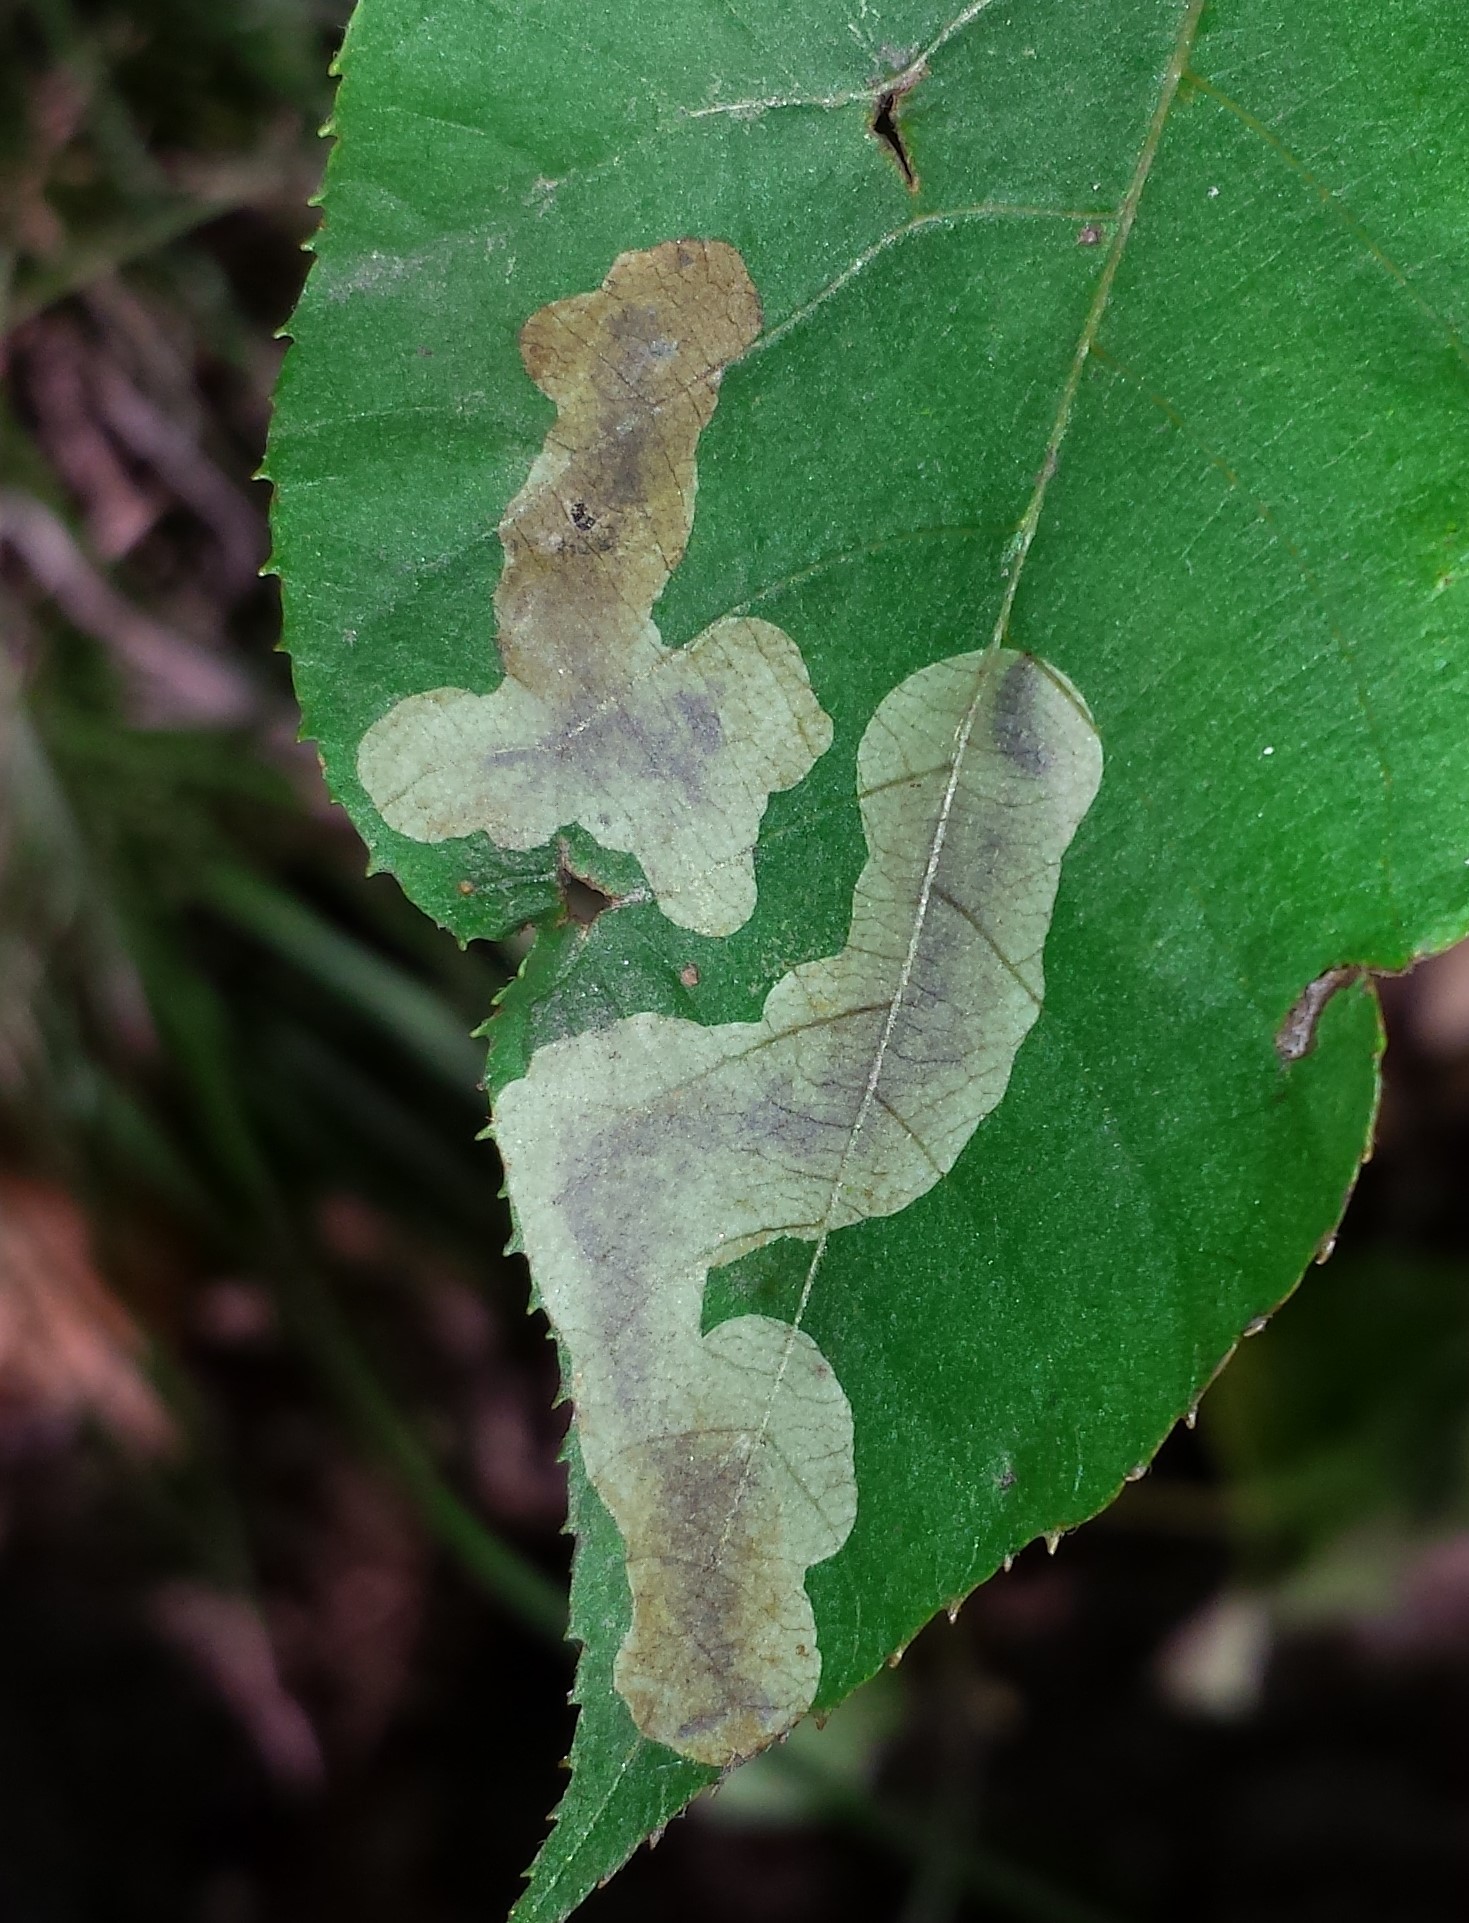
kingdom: Animalia
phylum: Arthropoda
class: Insecta
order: Lepidoptera
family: Gracillariidae
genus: Cameraria
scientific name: Cameraria caryaefoliella
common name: Pecan leafminer moth
